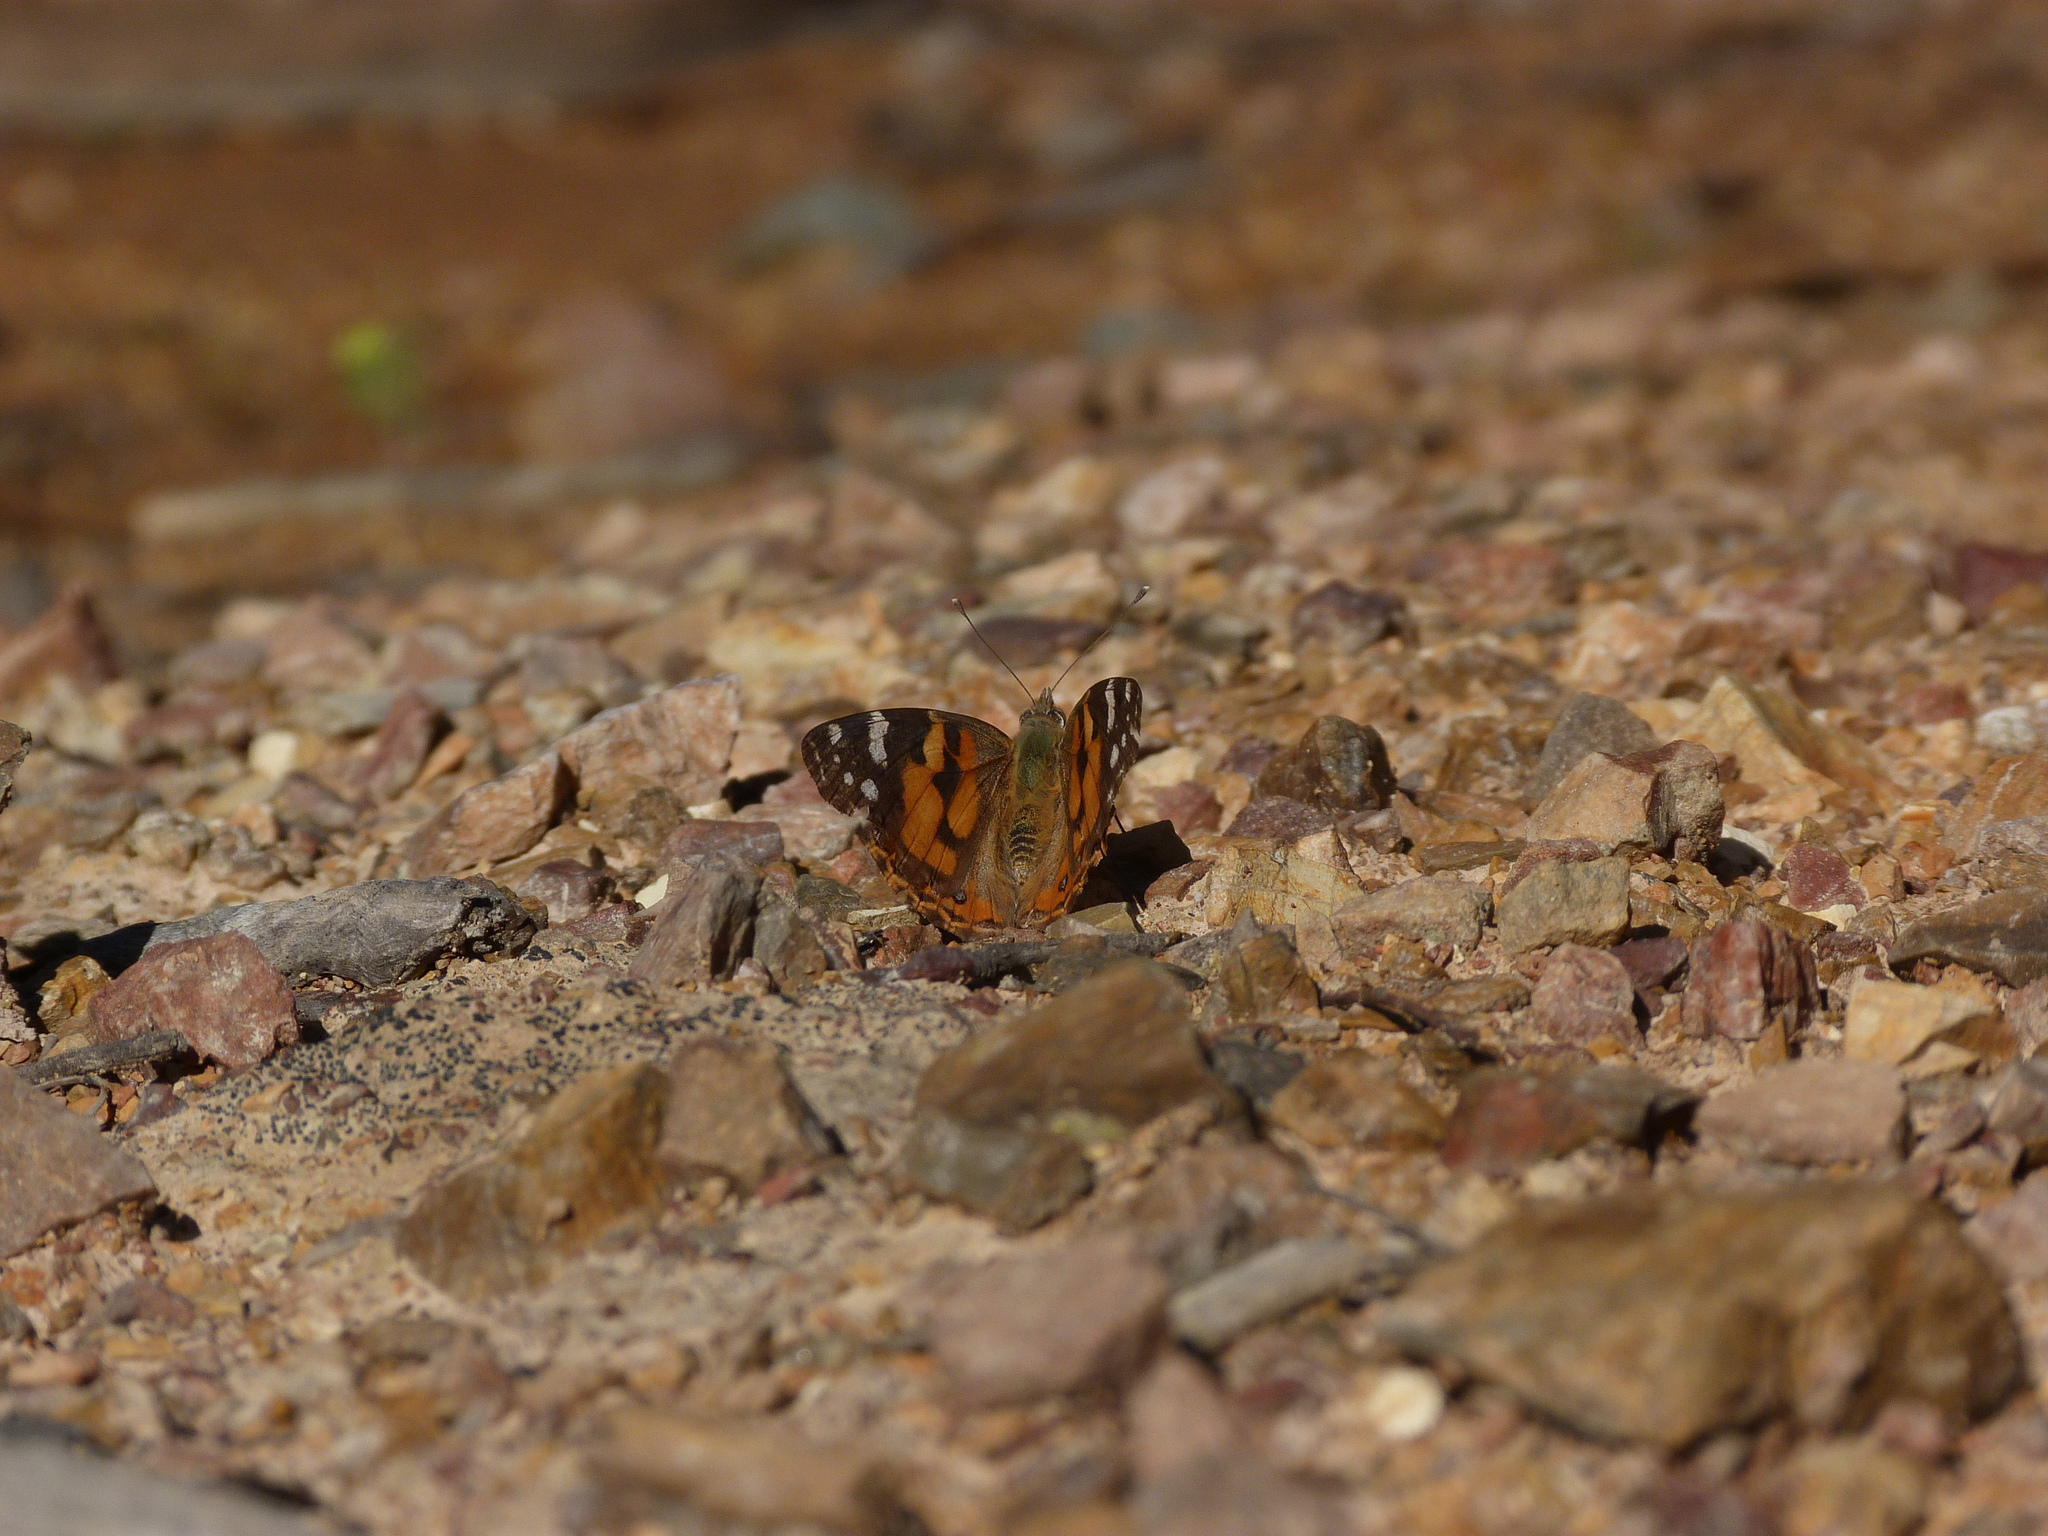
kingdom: Animalia
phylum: Arthropoda
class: Insecta
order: Lepidoptera
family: Nymphalidae
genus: Vanessa
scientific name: Vanessa kershawi
